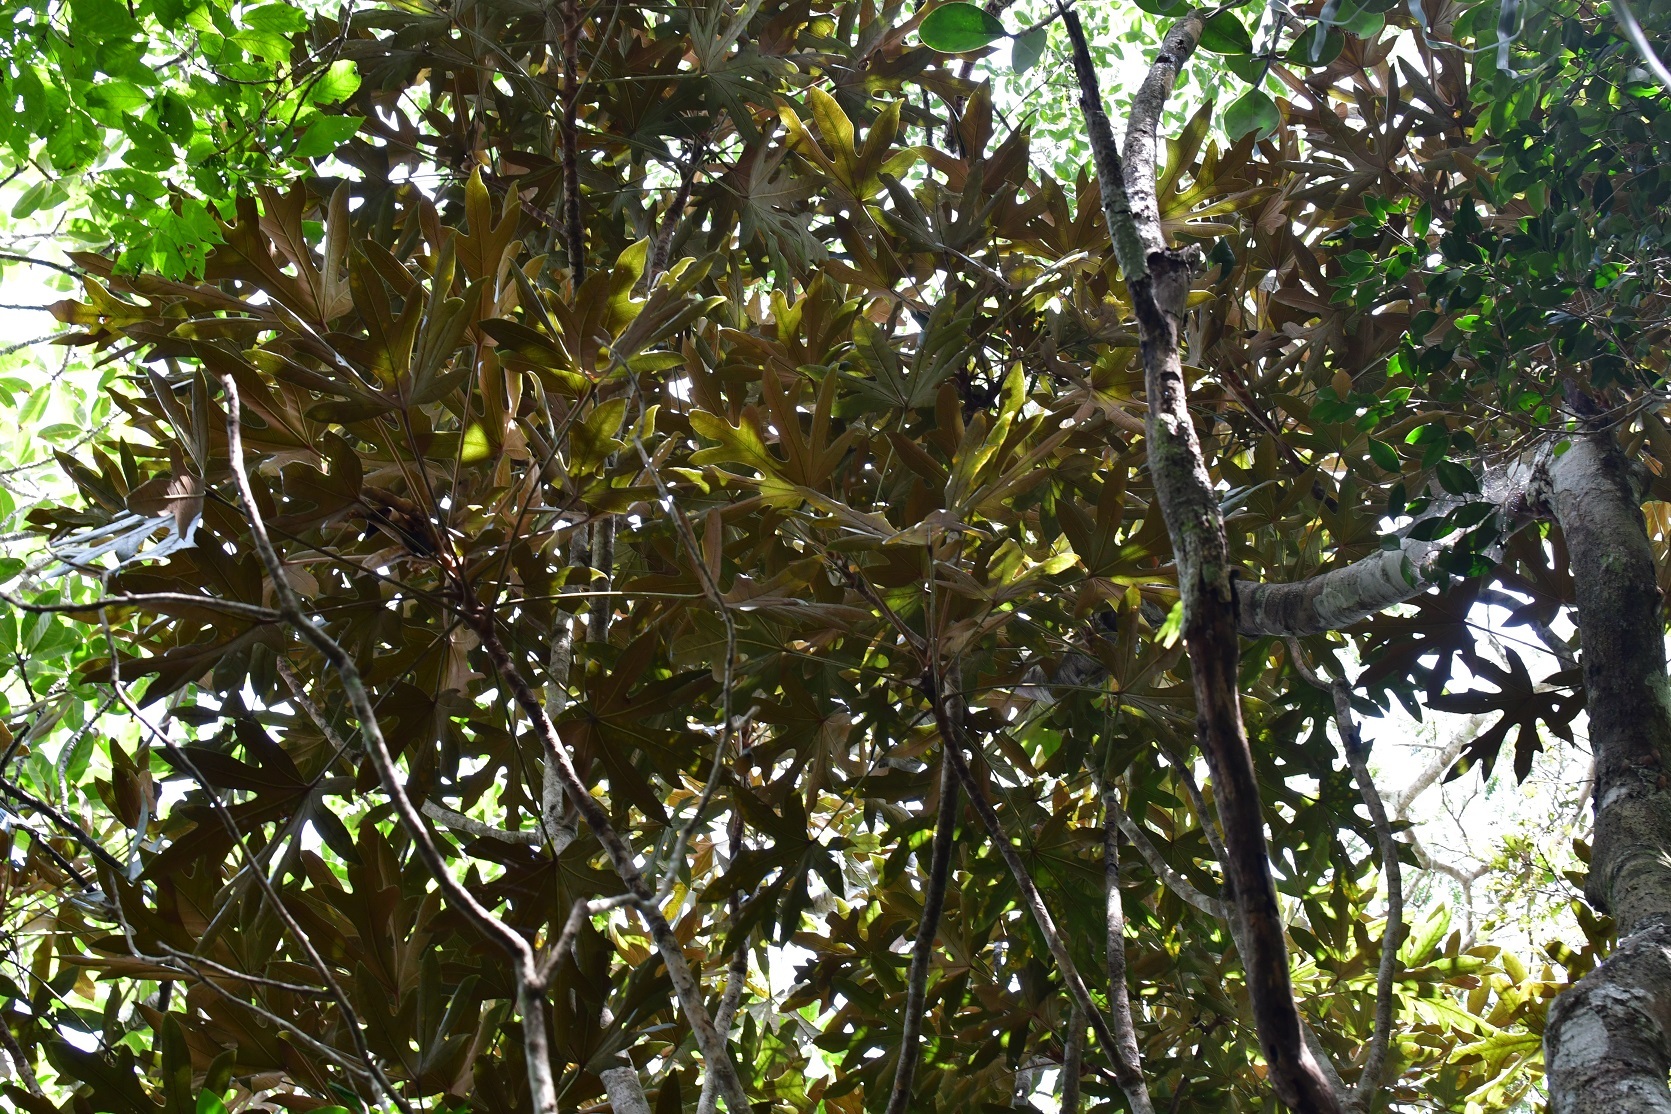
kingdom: Plantae
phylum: Tracheophyta
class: Magnoliopsida
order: Apiales
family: Araliaceae
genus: Oreopanax
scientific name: Oreopanax geminatus
